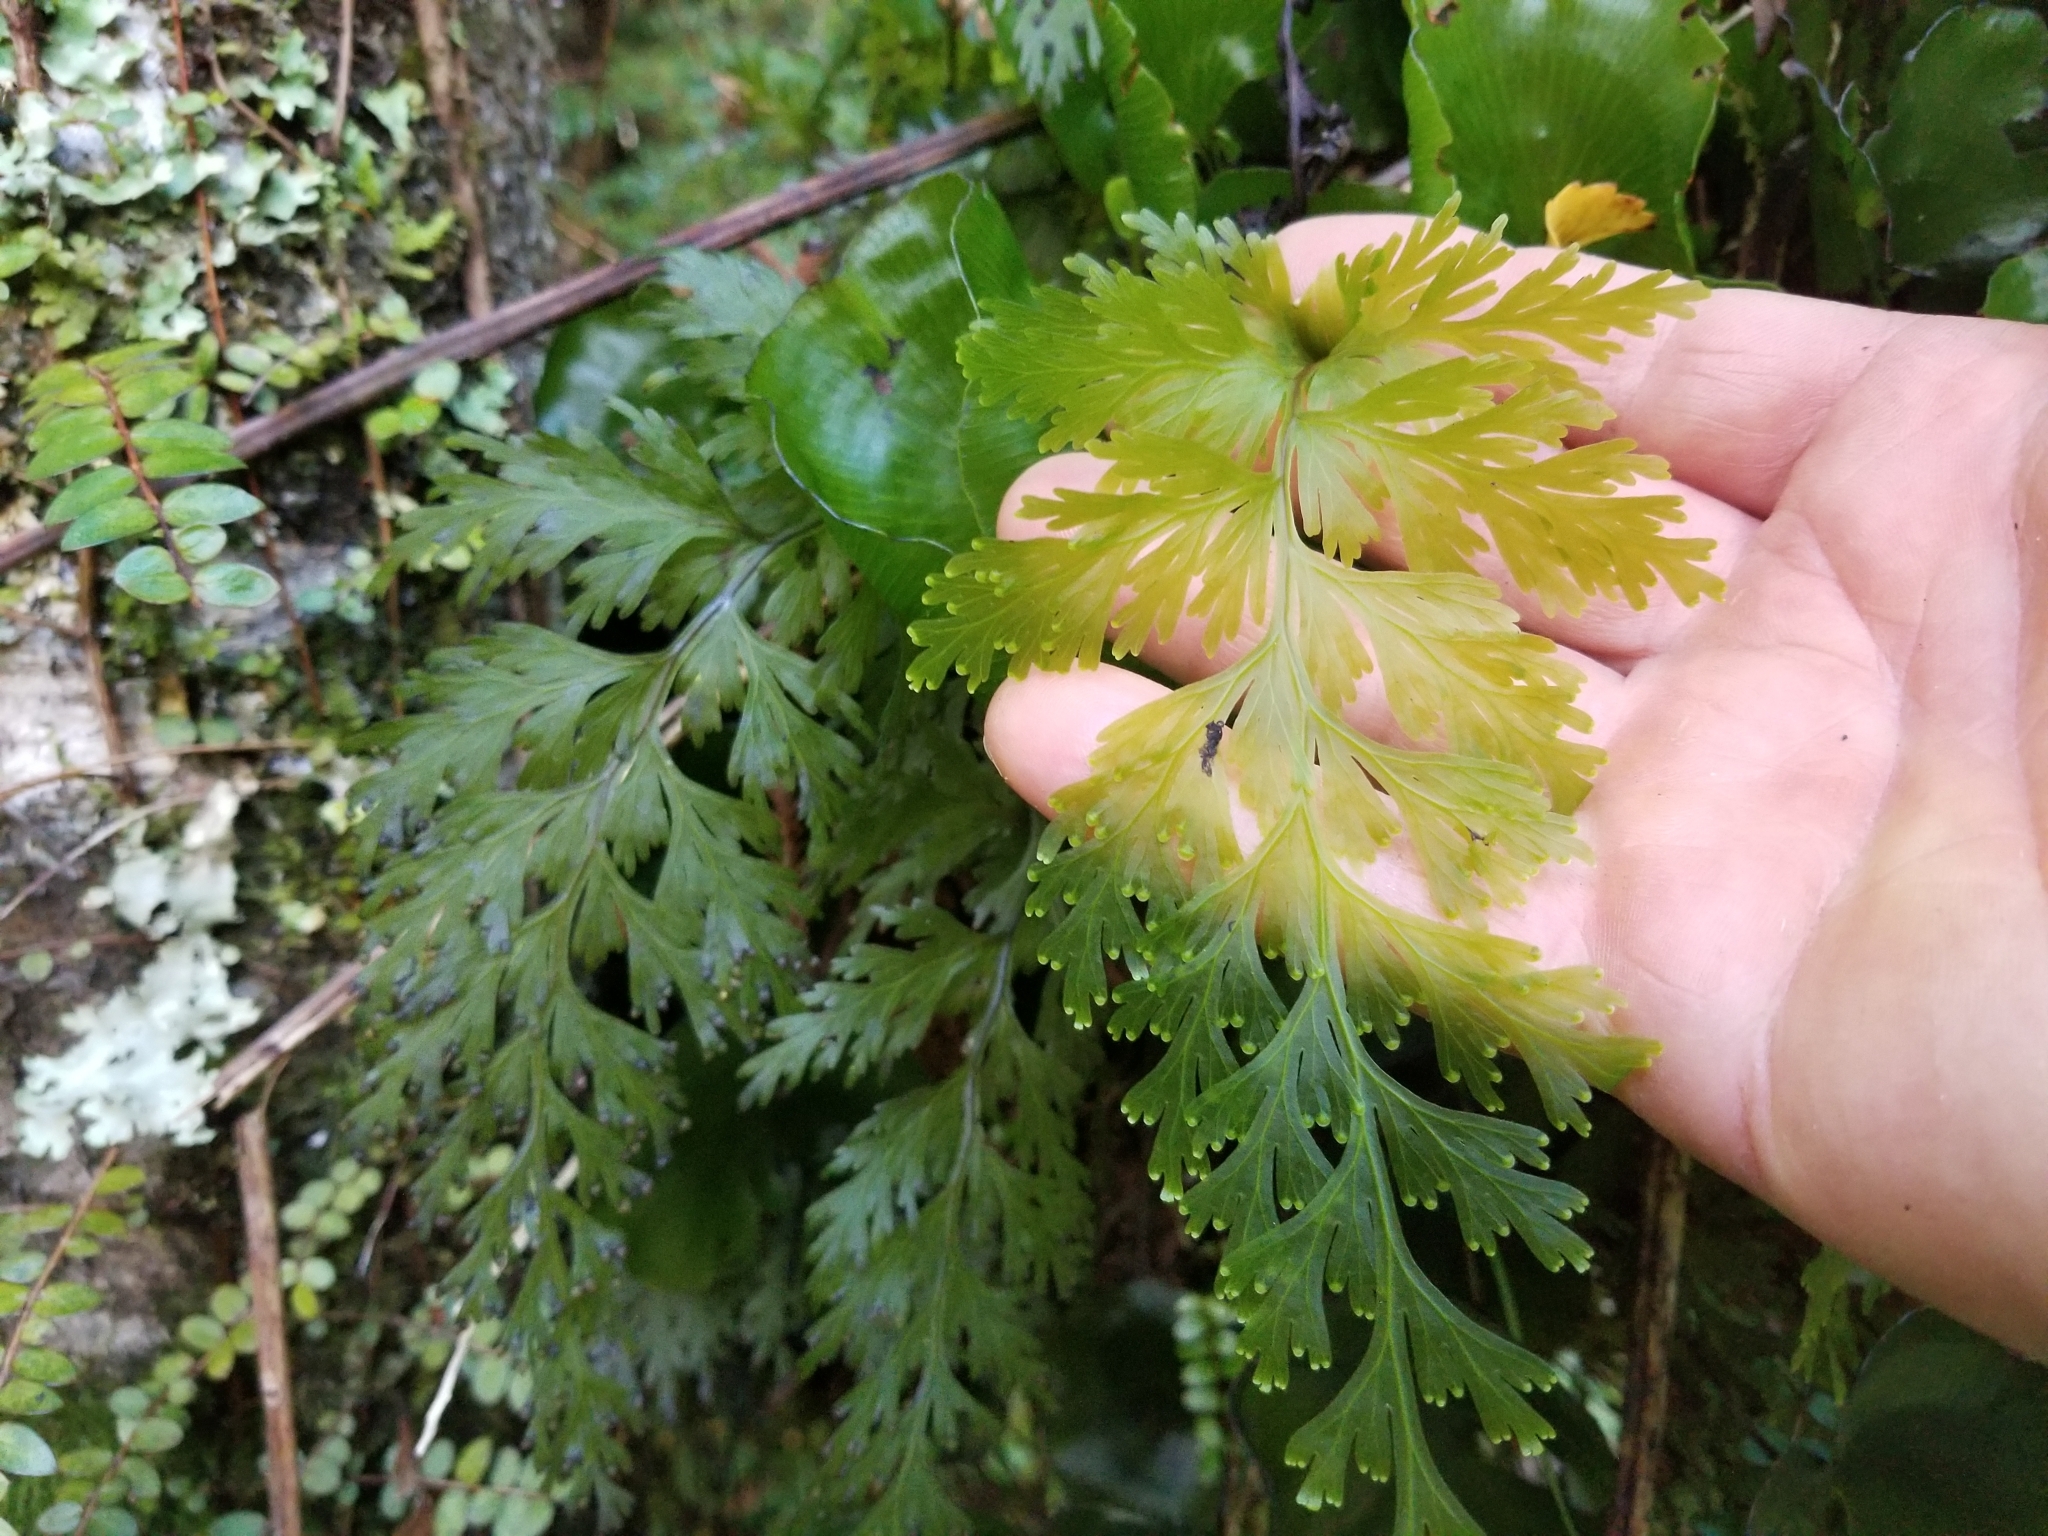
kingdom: Plantae
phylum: Tracheophyta
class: Polypodiopsida
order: Hymenophyllales
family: Hymenophyllaceae
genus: Hymenophyllum
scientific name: Hymenophyllum dilatatum
